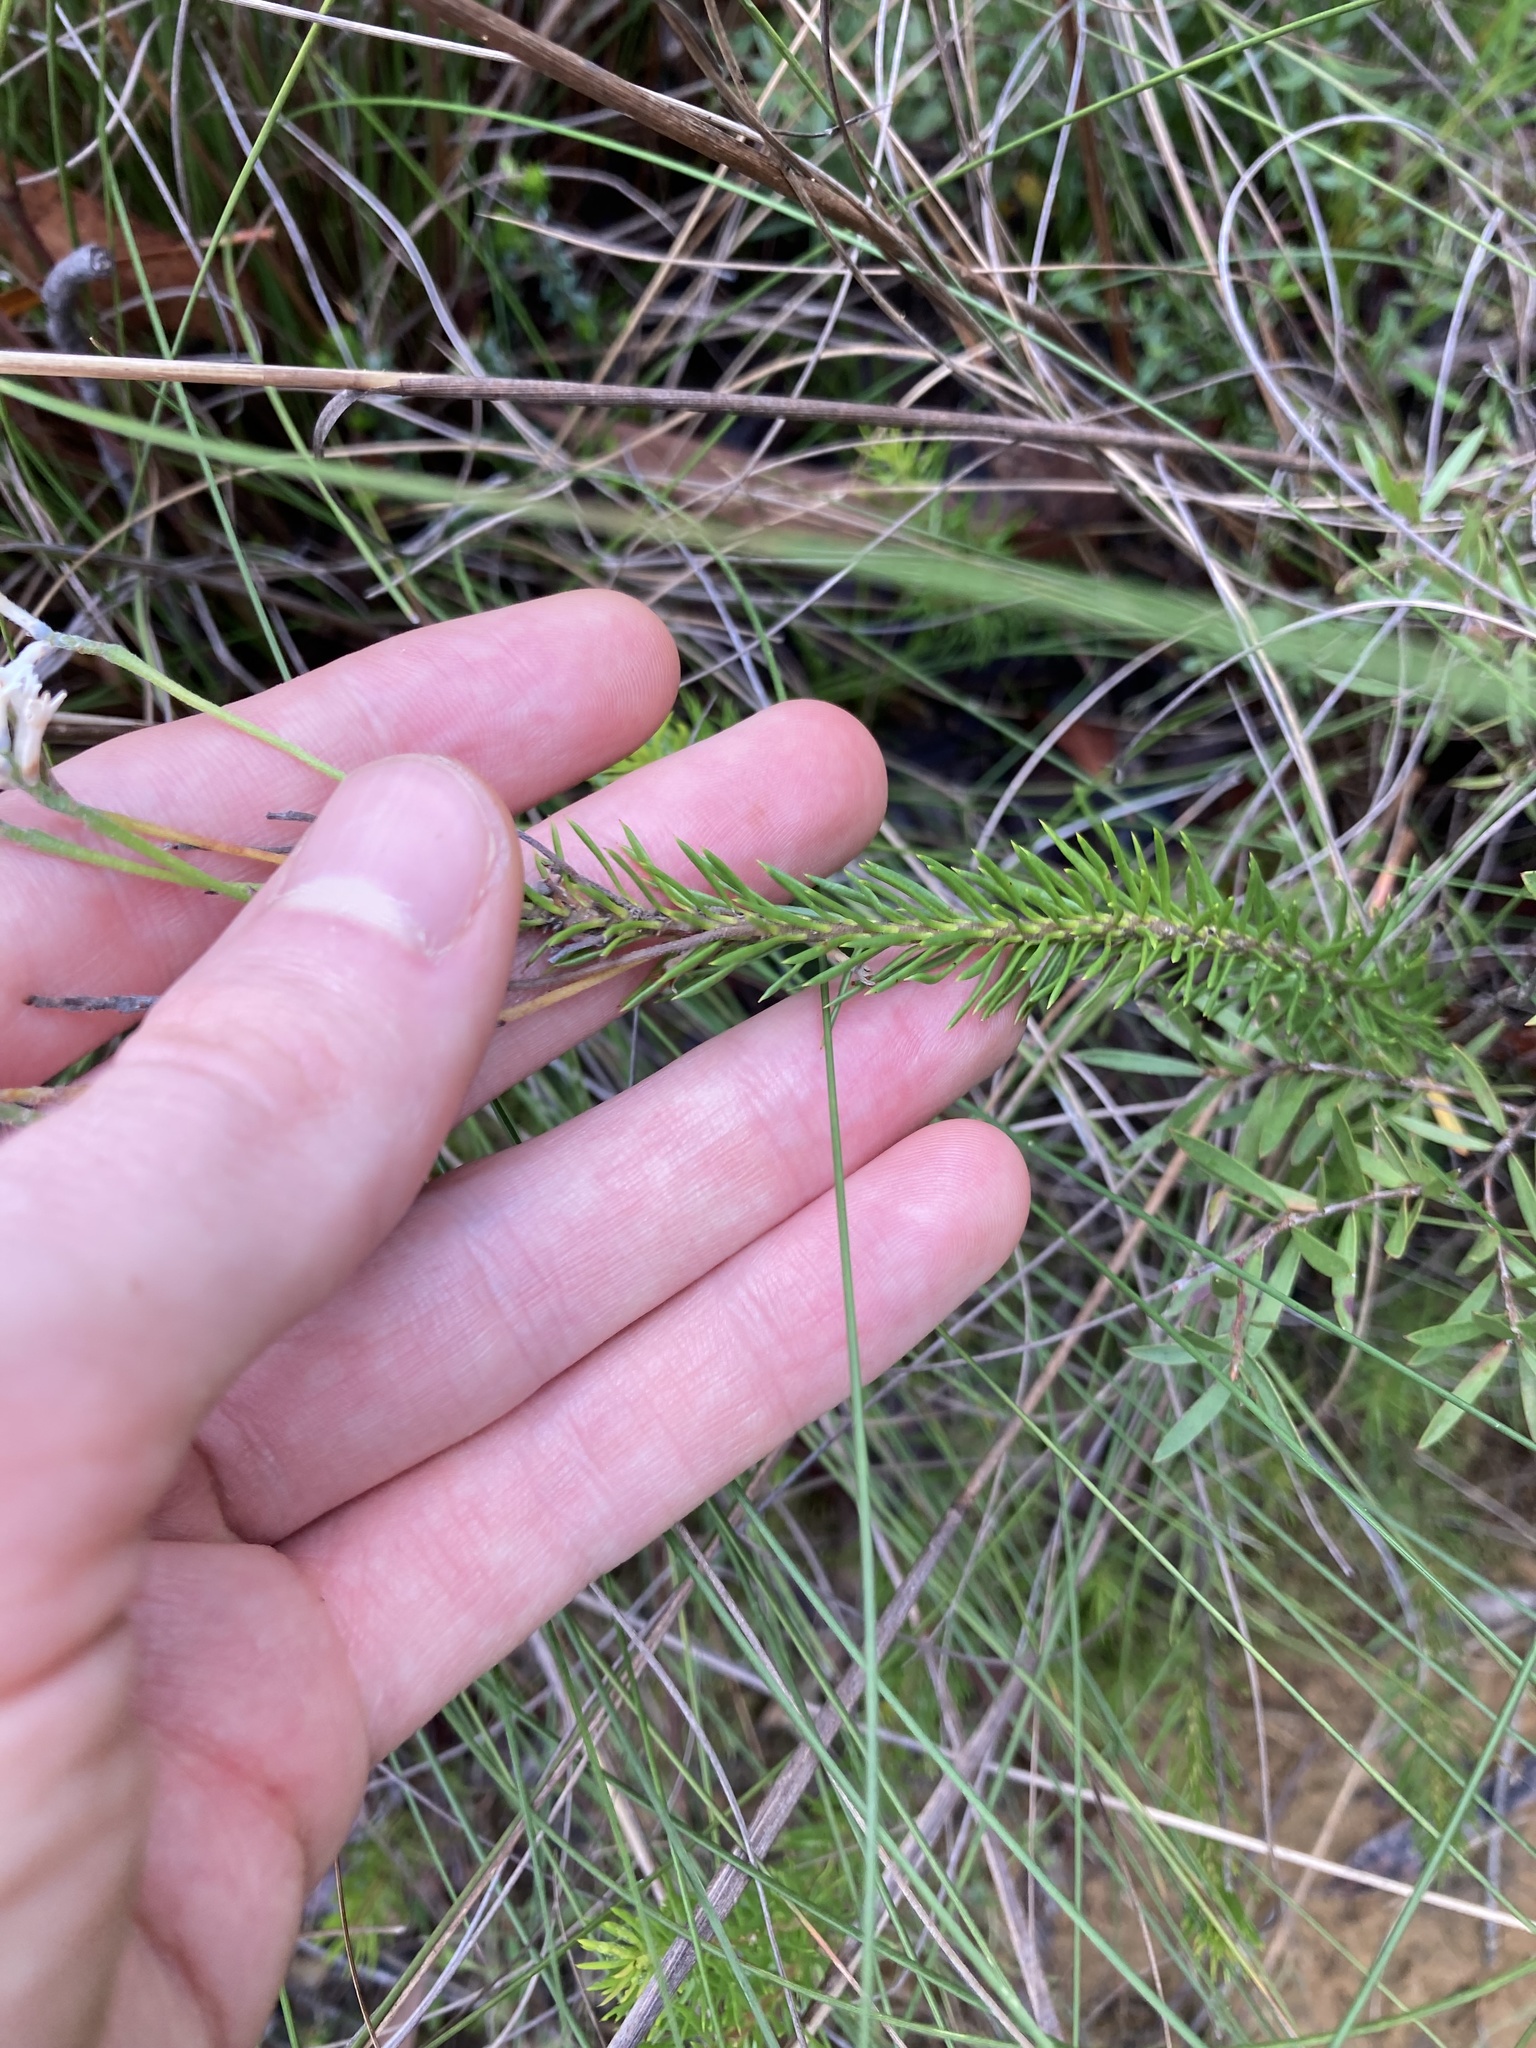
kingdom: Plantae
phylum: Tracheophyta
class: Magnoliopsida
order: Proteales
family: Proteaceae
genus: Conospermum
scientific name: Conospermum taxifolium
